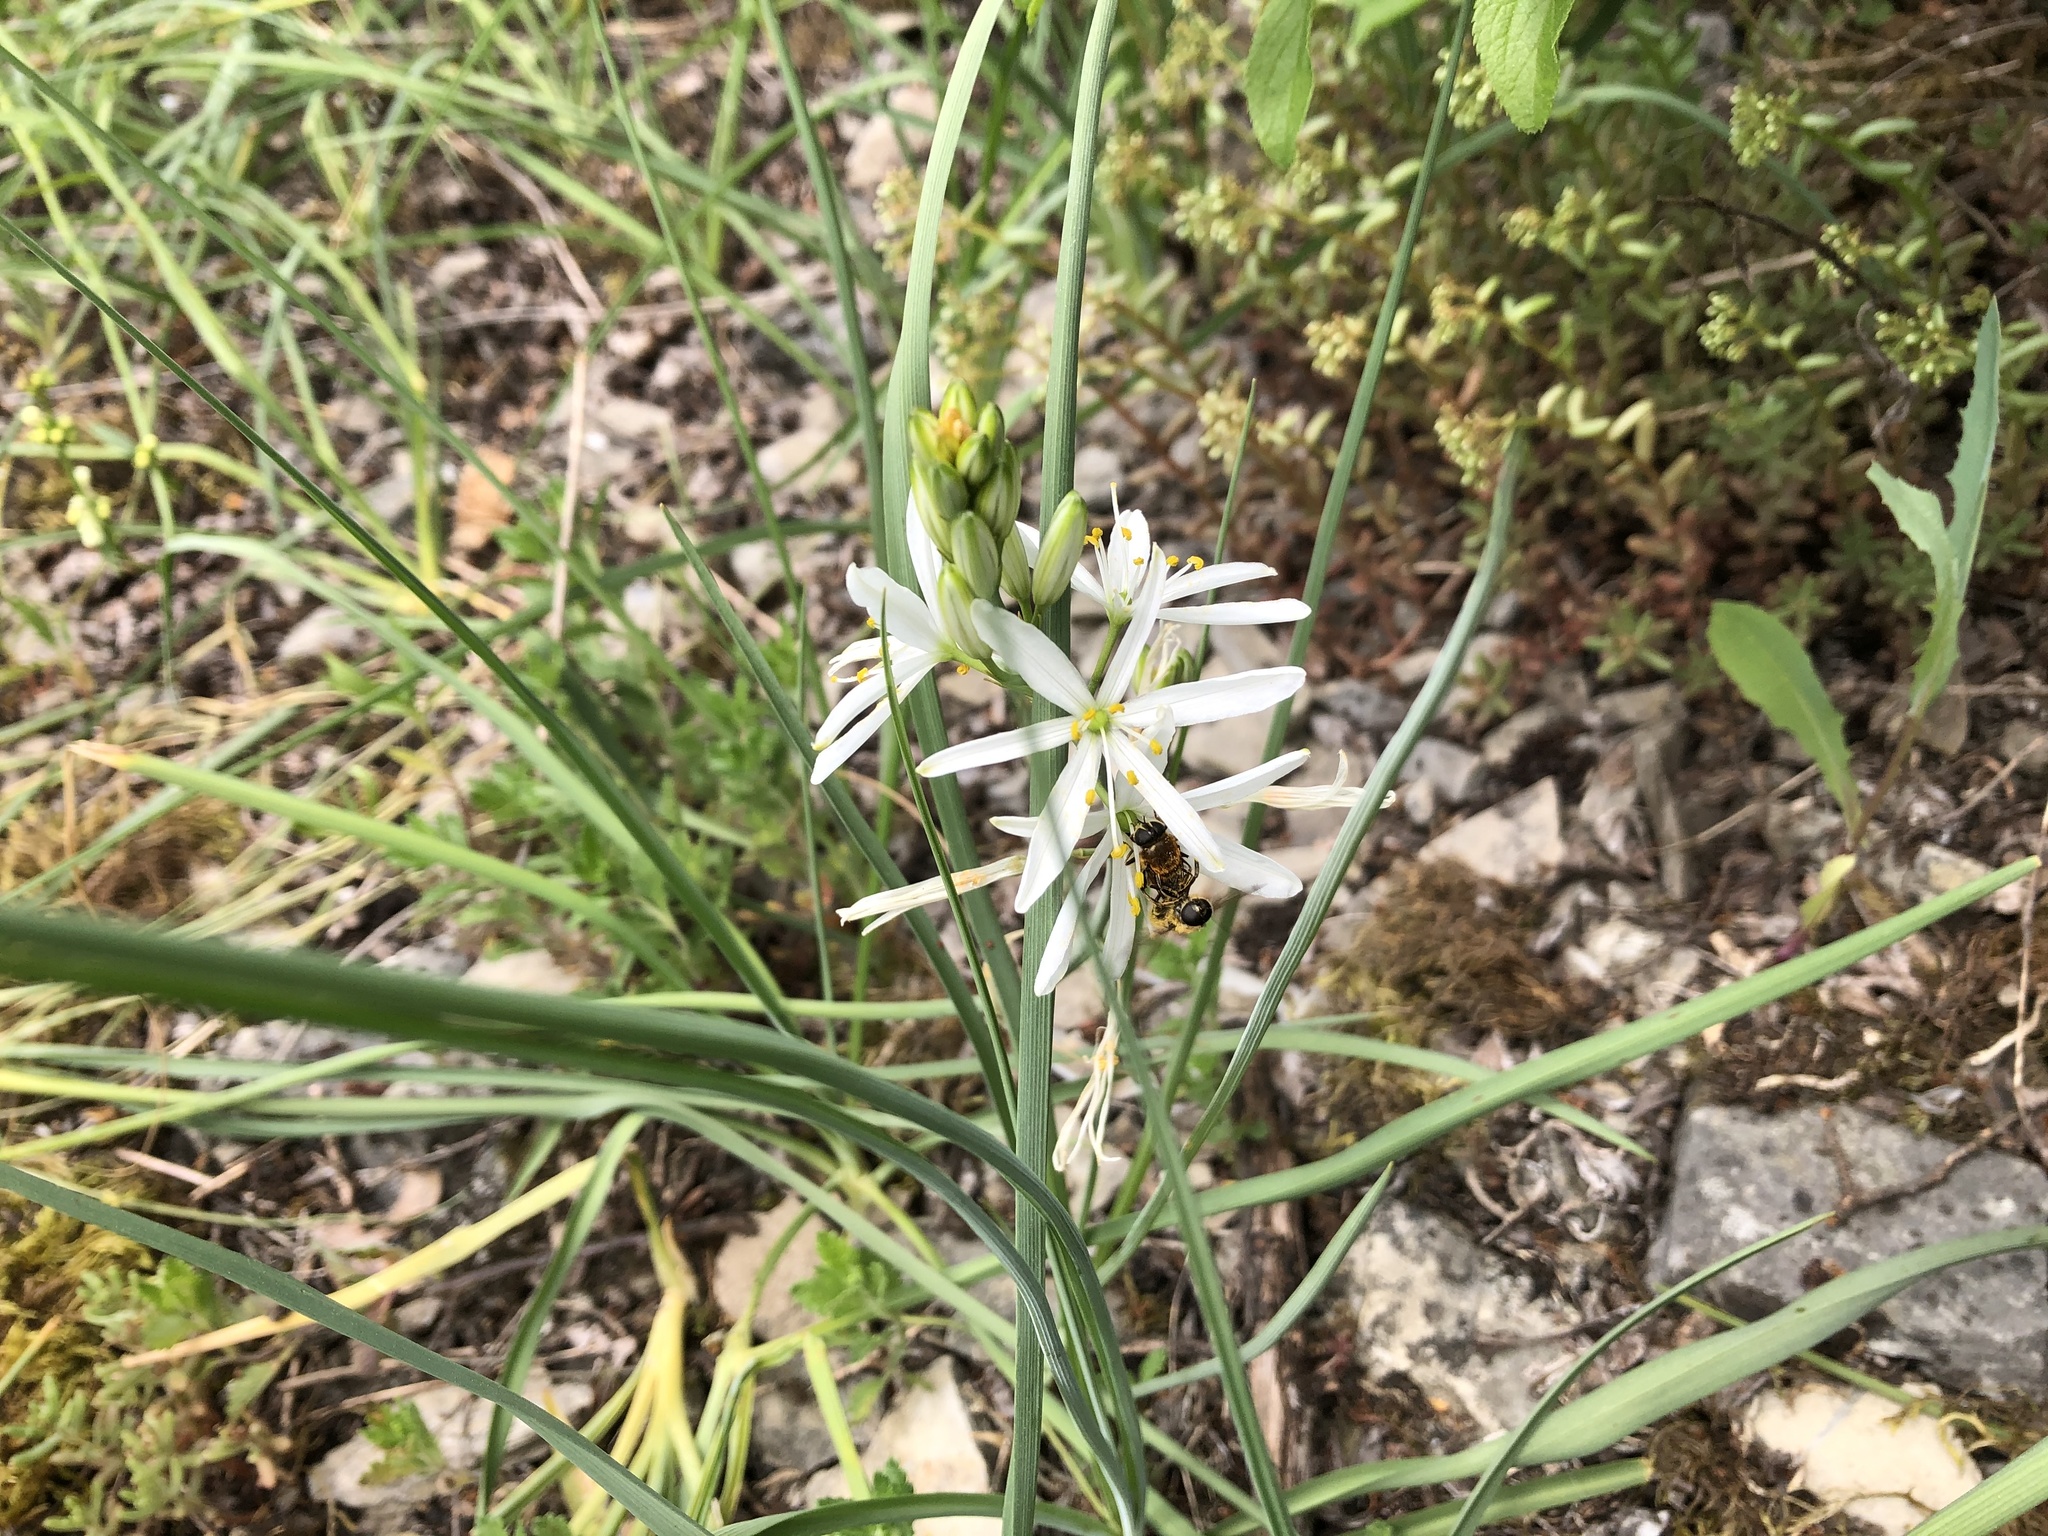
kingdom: Plantae
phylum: Tracheophyta
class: Liliopsida
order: Asparagales
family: Asparagaceae
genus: Anthericum
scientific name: Anthericum liliago
